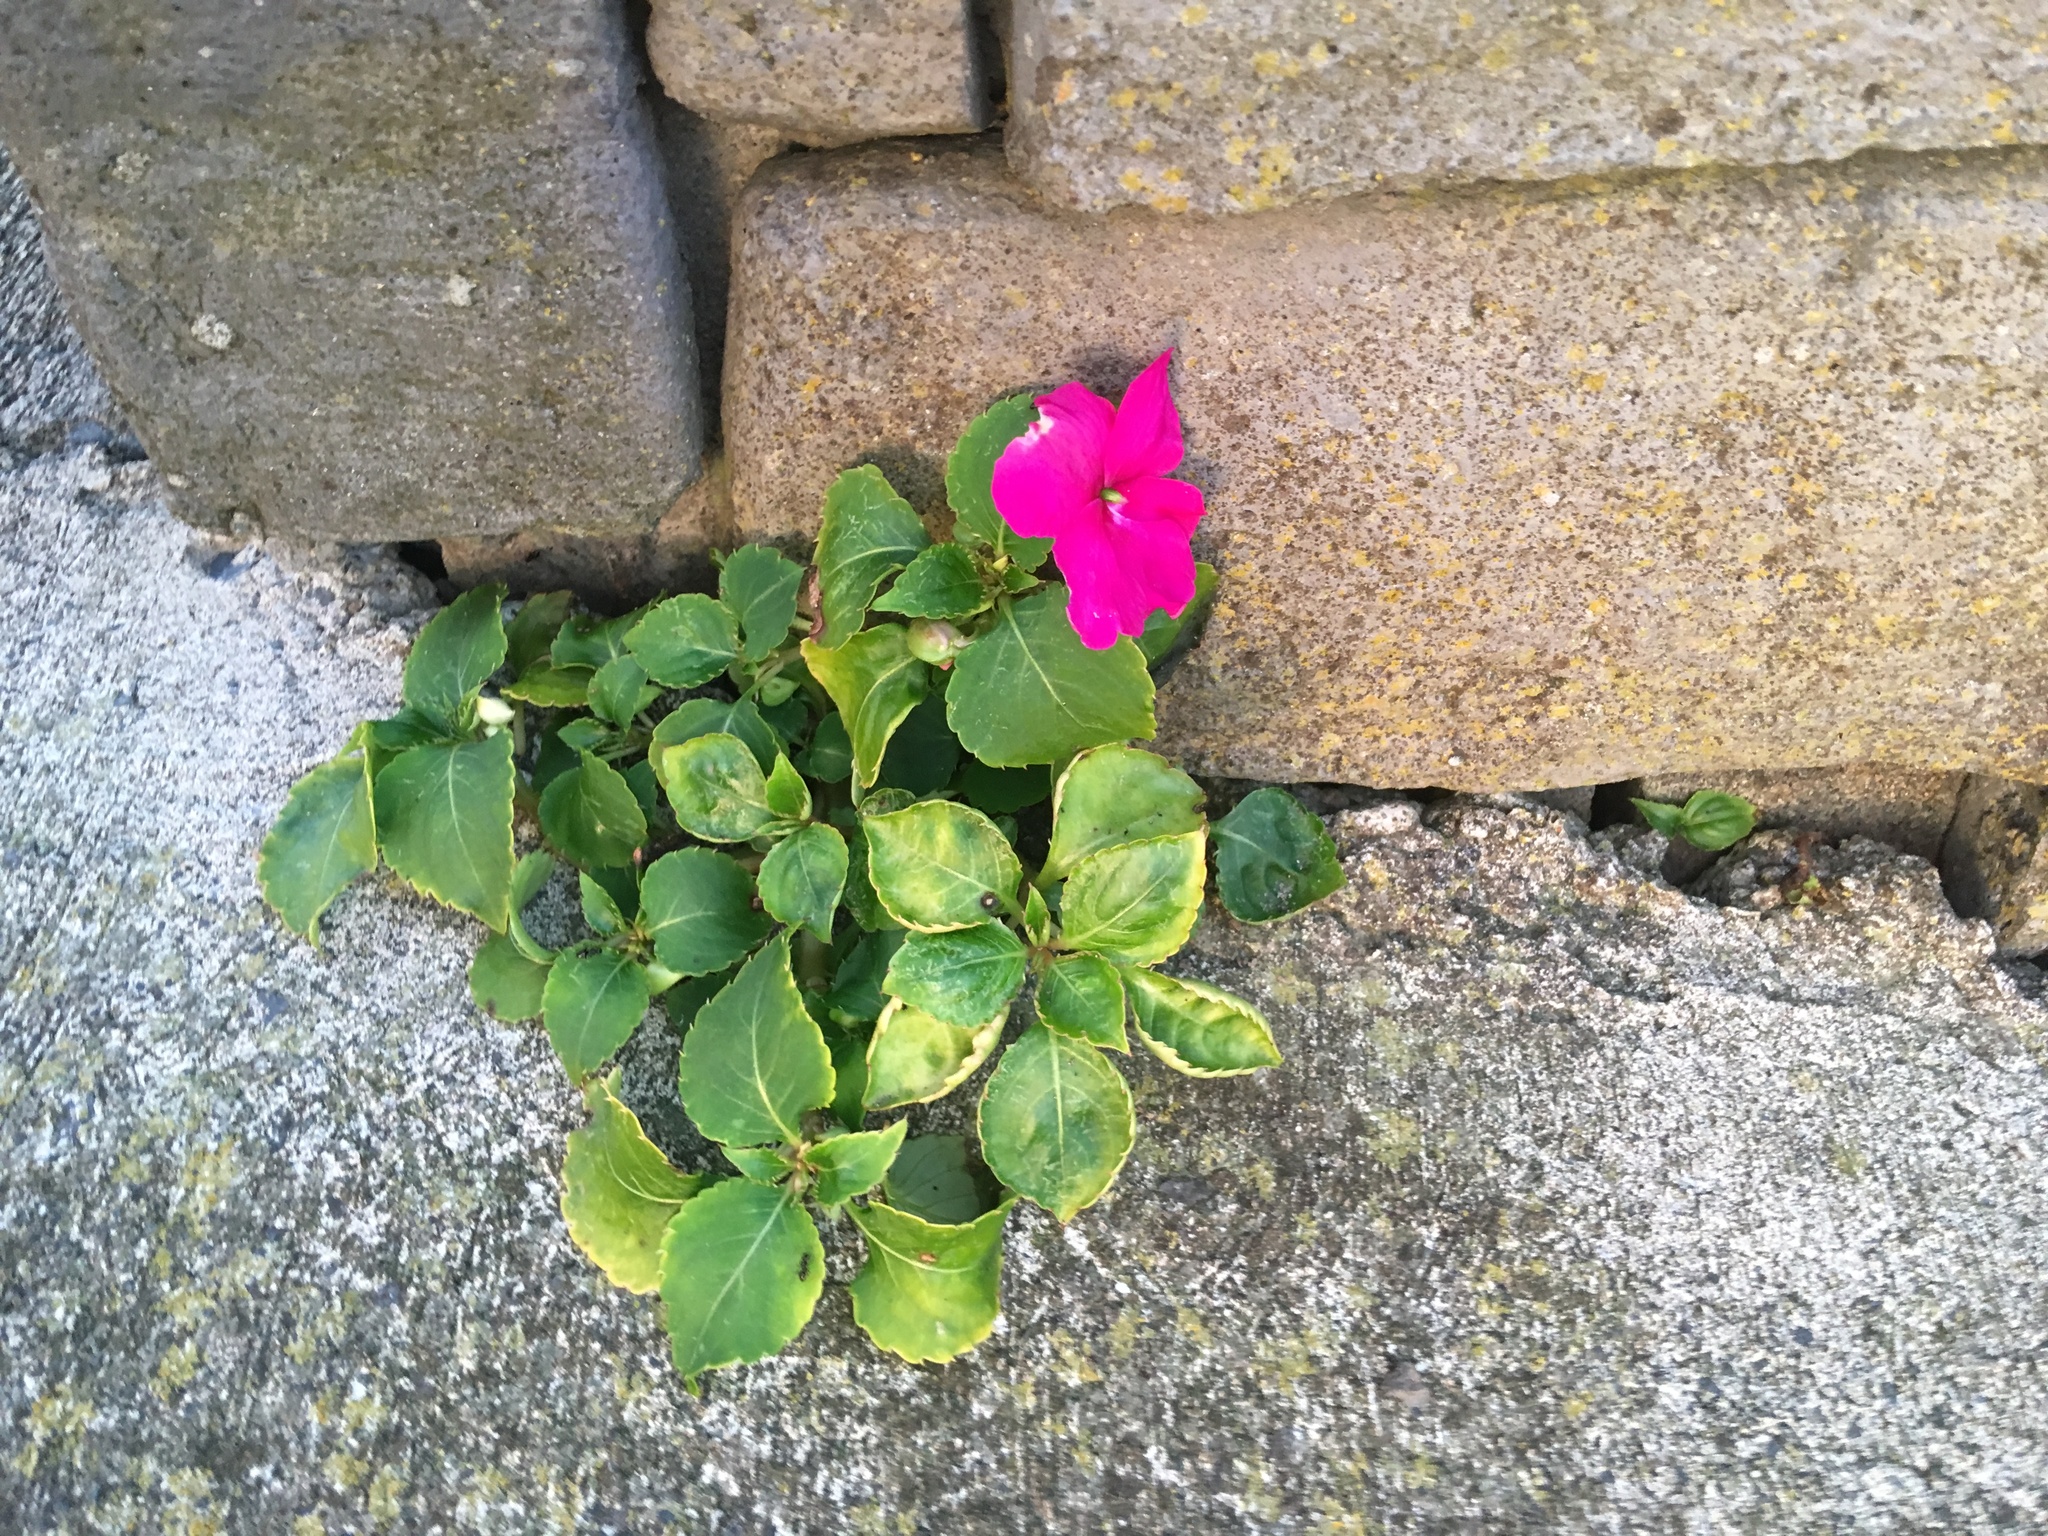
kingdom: Plantae
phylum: Tracheophyta
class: Magnoliopsida
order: Ericales
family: Balsaminaceae
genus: Impatiens
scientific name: Impatiens walleriana
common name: Buzzy lizzy
